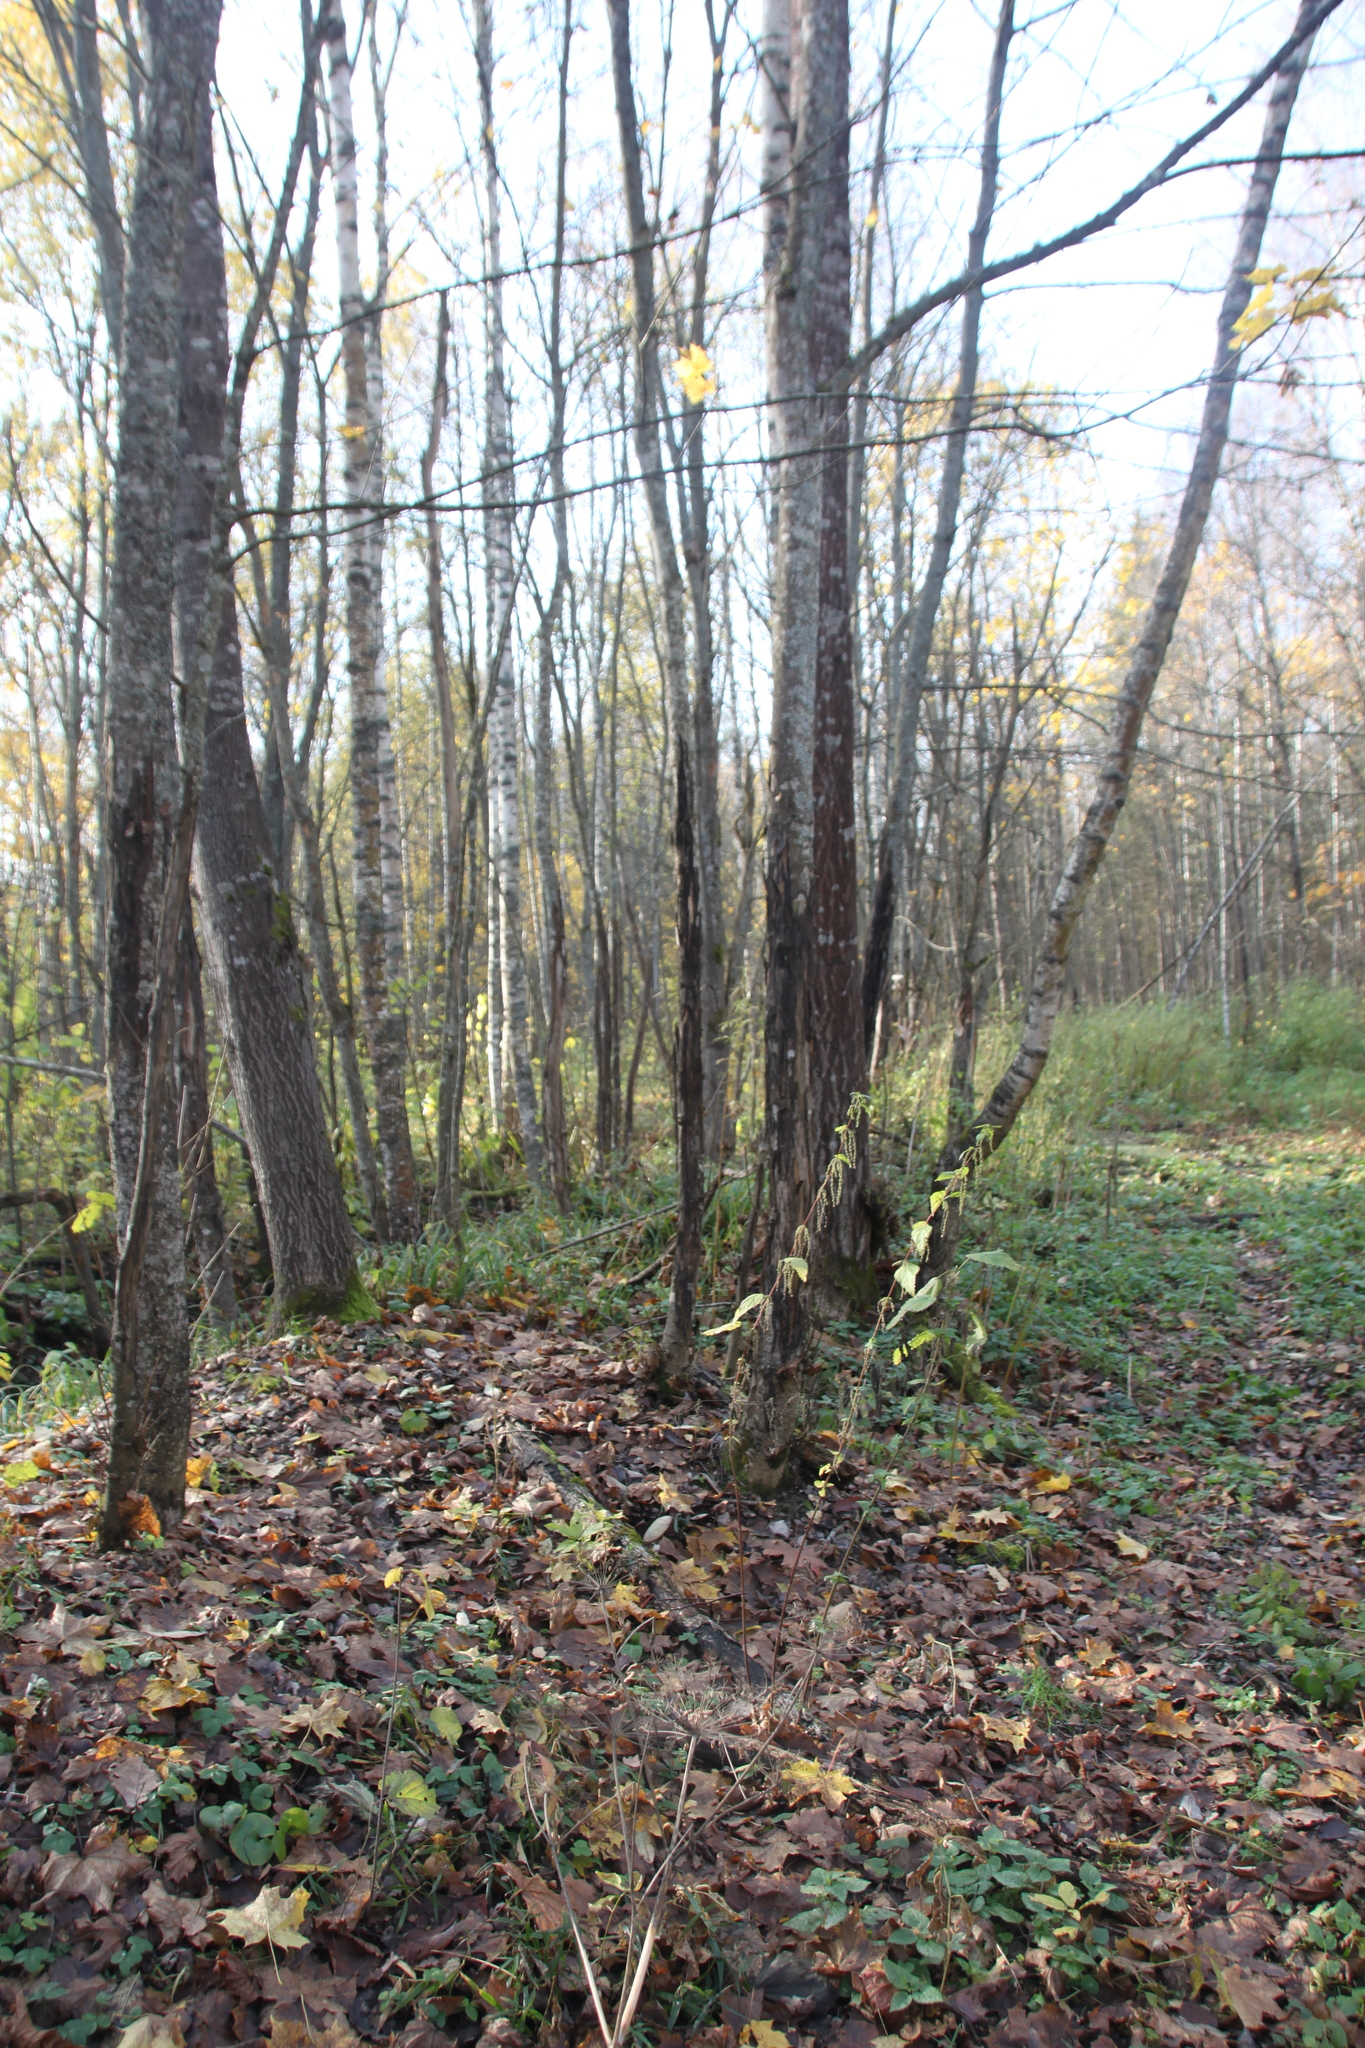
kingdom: Plantae
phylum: Tracheophyta
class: Magnoliopsida
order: Rosales
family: Urticaceae
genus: Urtica
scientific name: Urtica dioica
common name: Common nettle
